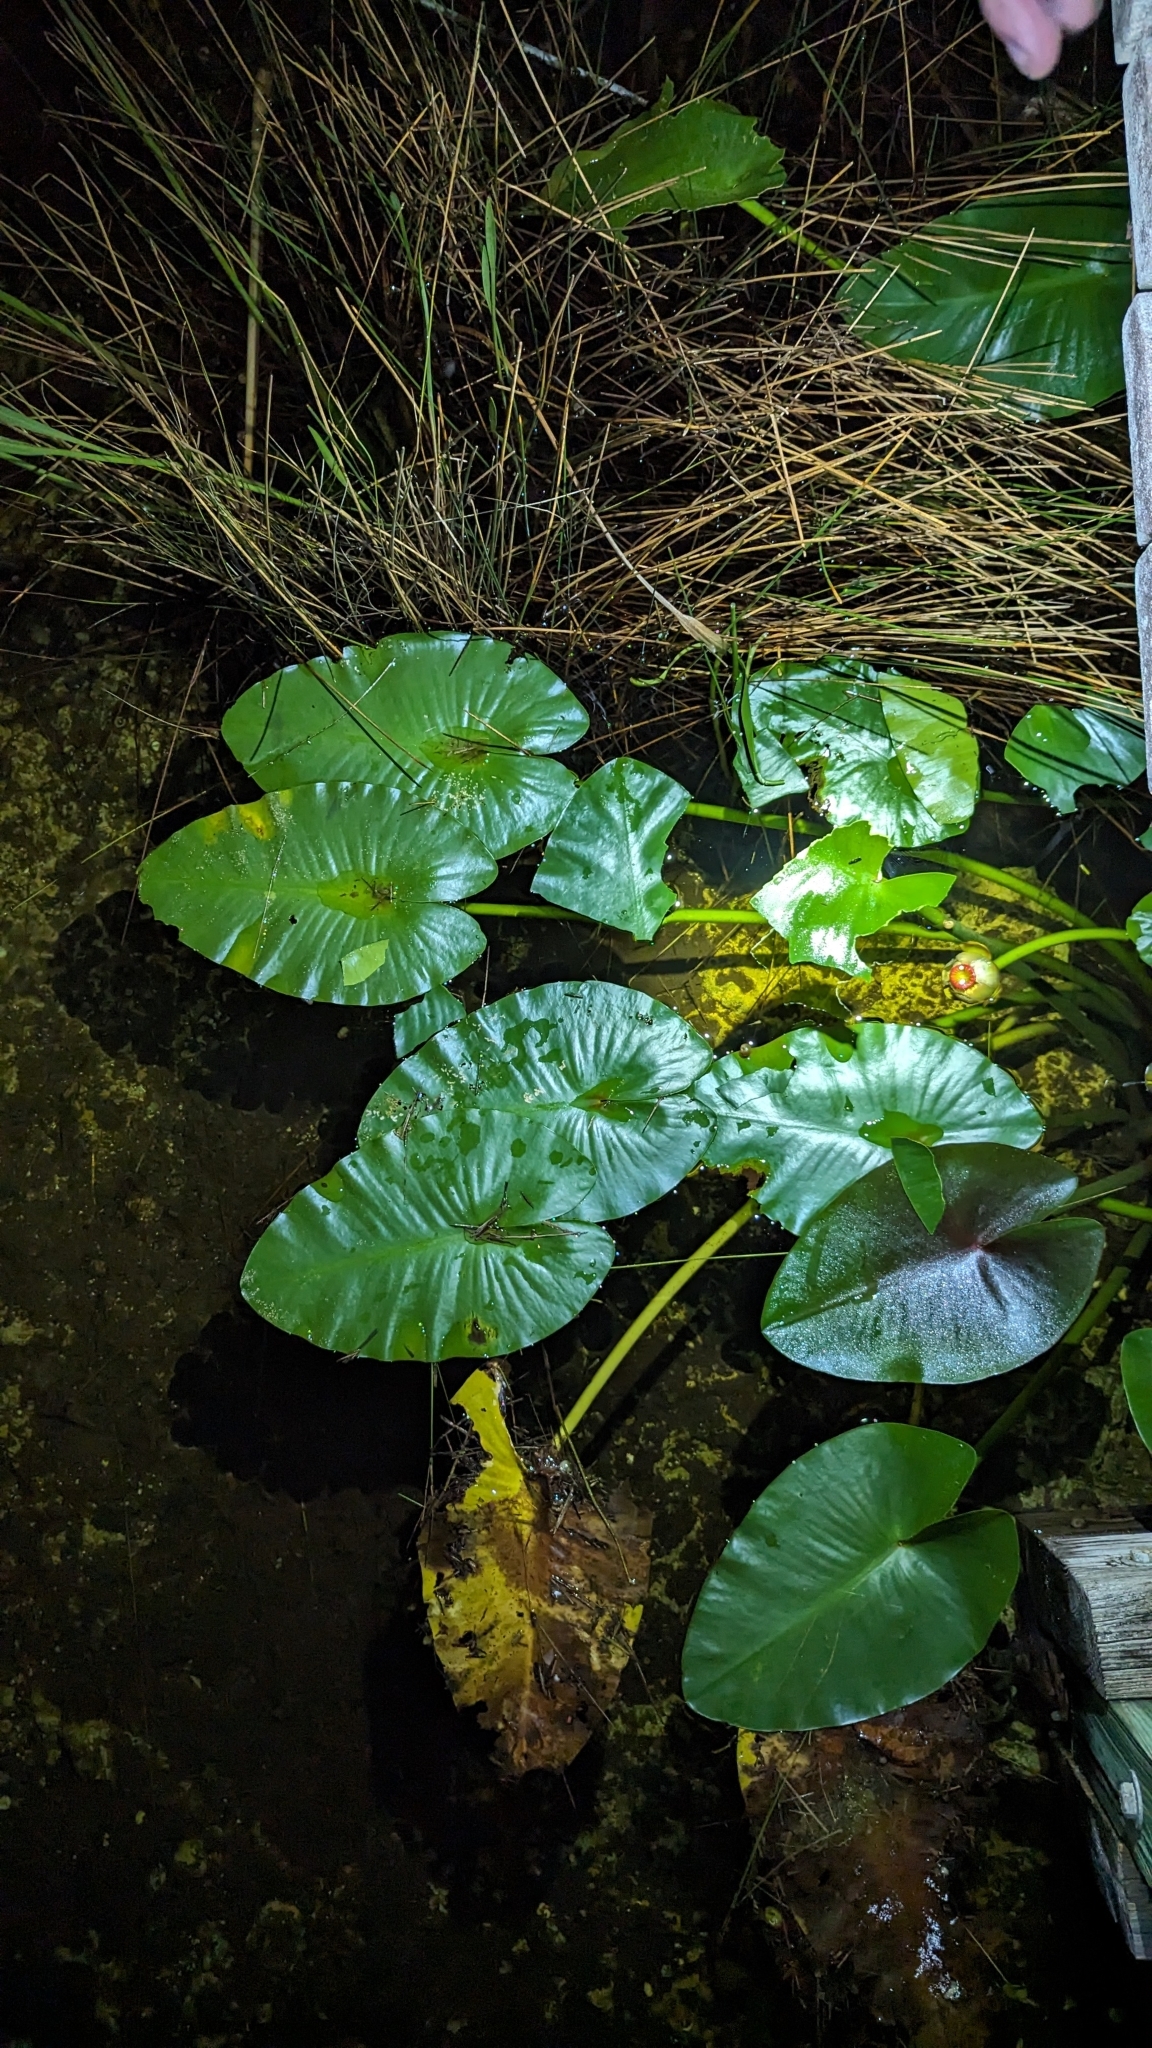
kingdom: Plantae
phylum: Tracheophyta
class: Magnoliopsida
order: Nymphaeales
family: Nymphaeaceae
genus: Nuphar
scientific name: Nuphar advena
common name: Spatter-dock
